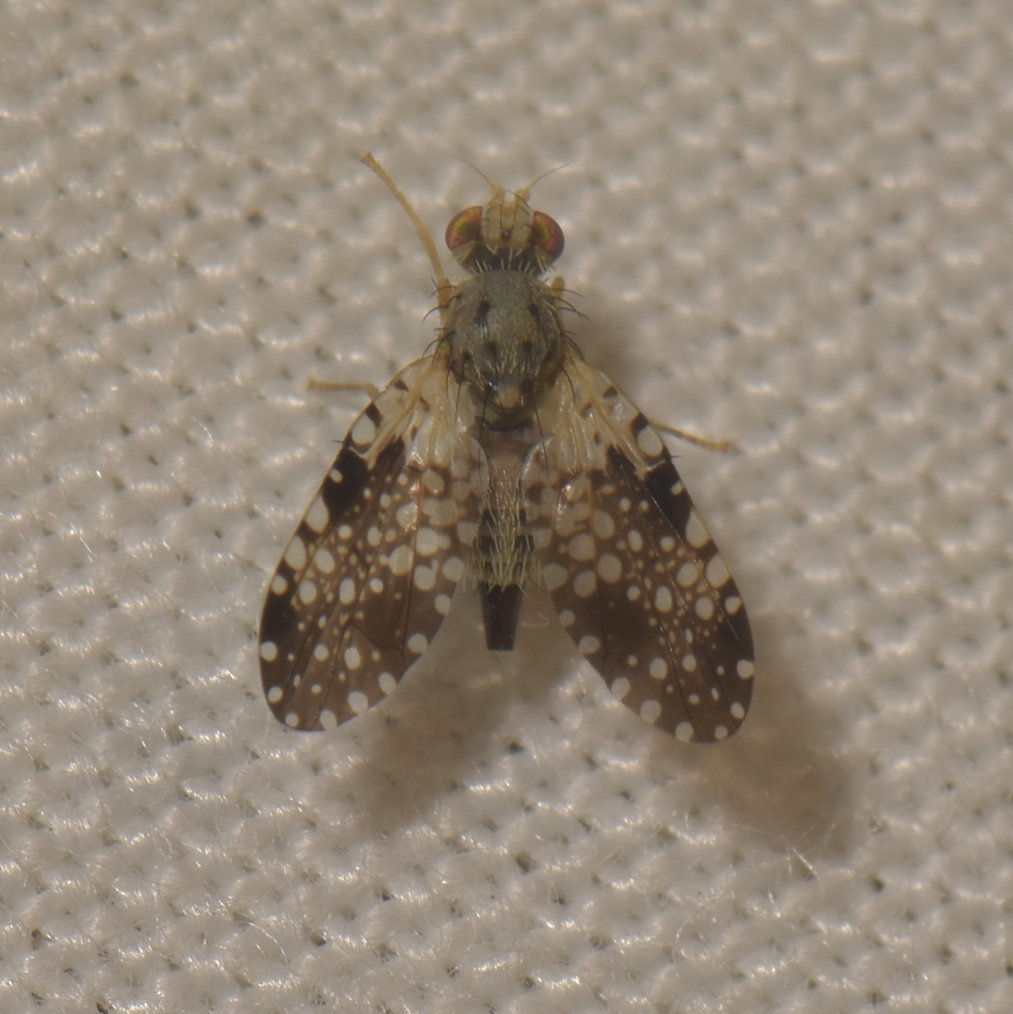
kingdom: Animalia
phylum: Arthropoda
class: Insecta
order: Diptera
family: Tephritidae
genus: Campiglossa
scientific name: Campiglossa albiceps
